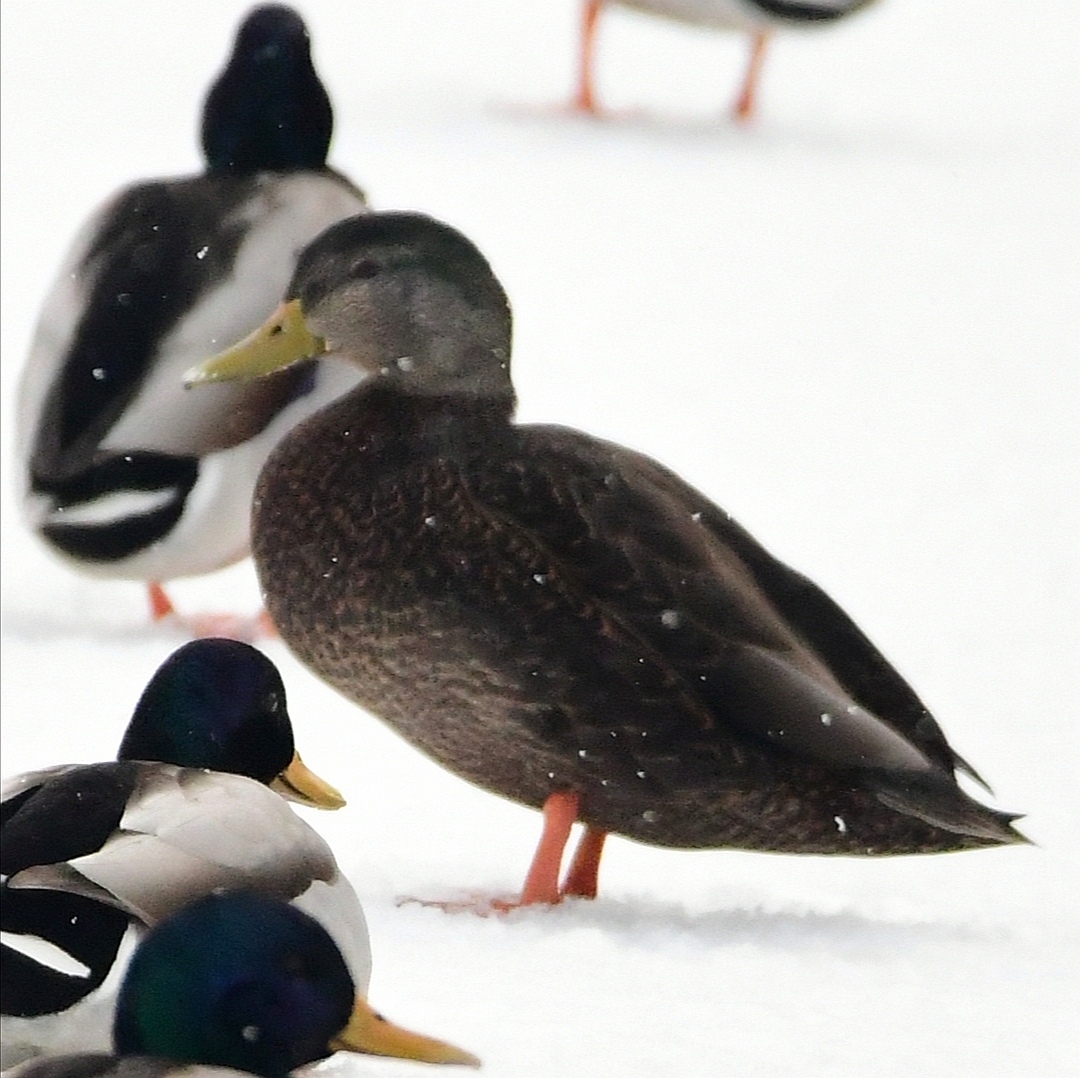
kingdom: Animalia
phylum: Chordata
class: Aves
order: Anseriformes
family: Anatidae
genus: Anas
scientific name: Anas rubripes
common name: American black duck
